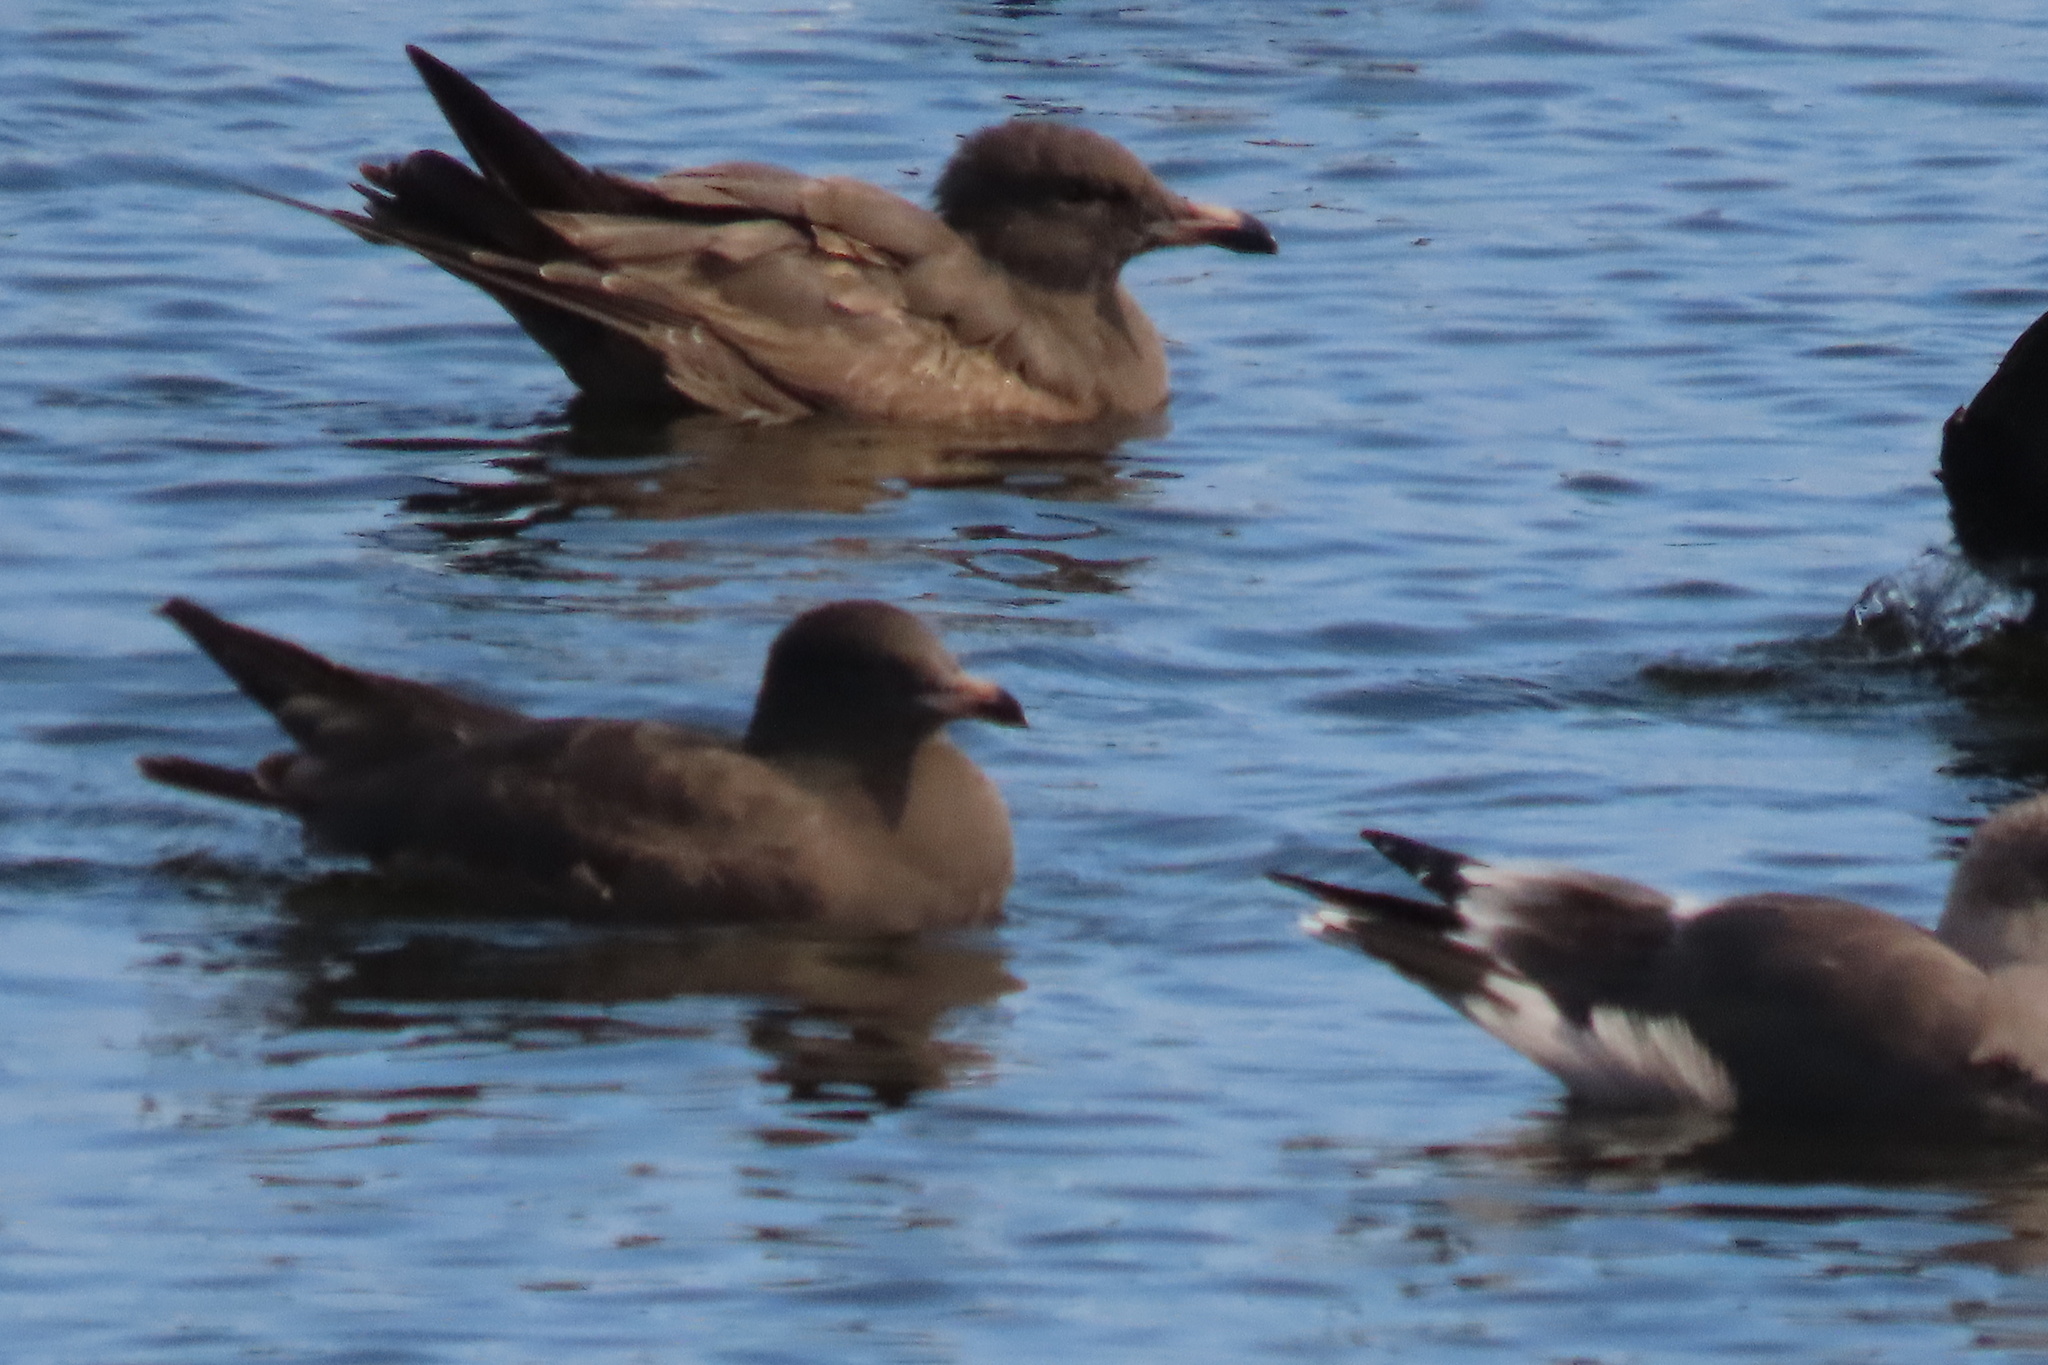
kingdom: Animalia
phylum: Chordata
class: Aves
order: Charadriiformes
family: Laridae
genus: Larus
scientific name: Larus heermanni
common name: Heermann's gull
